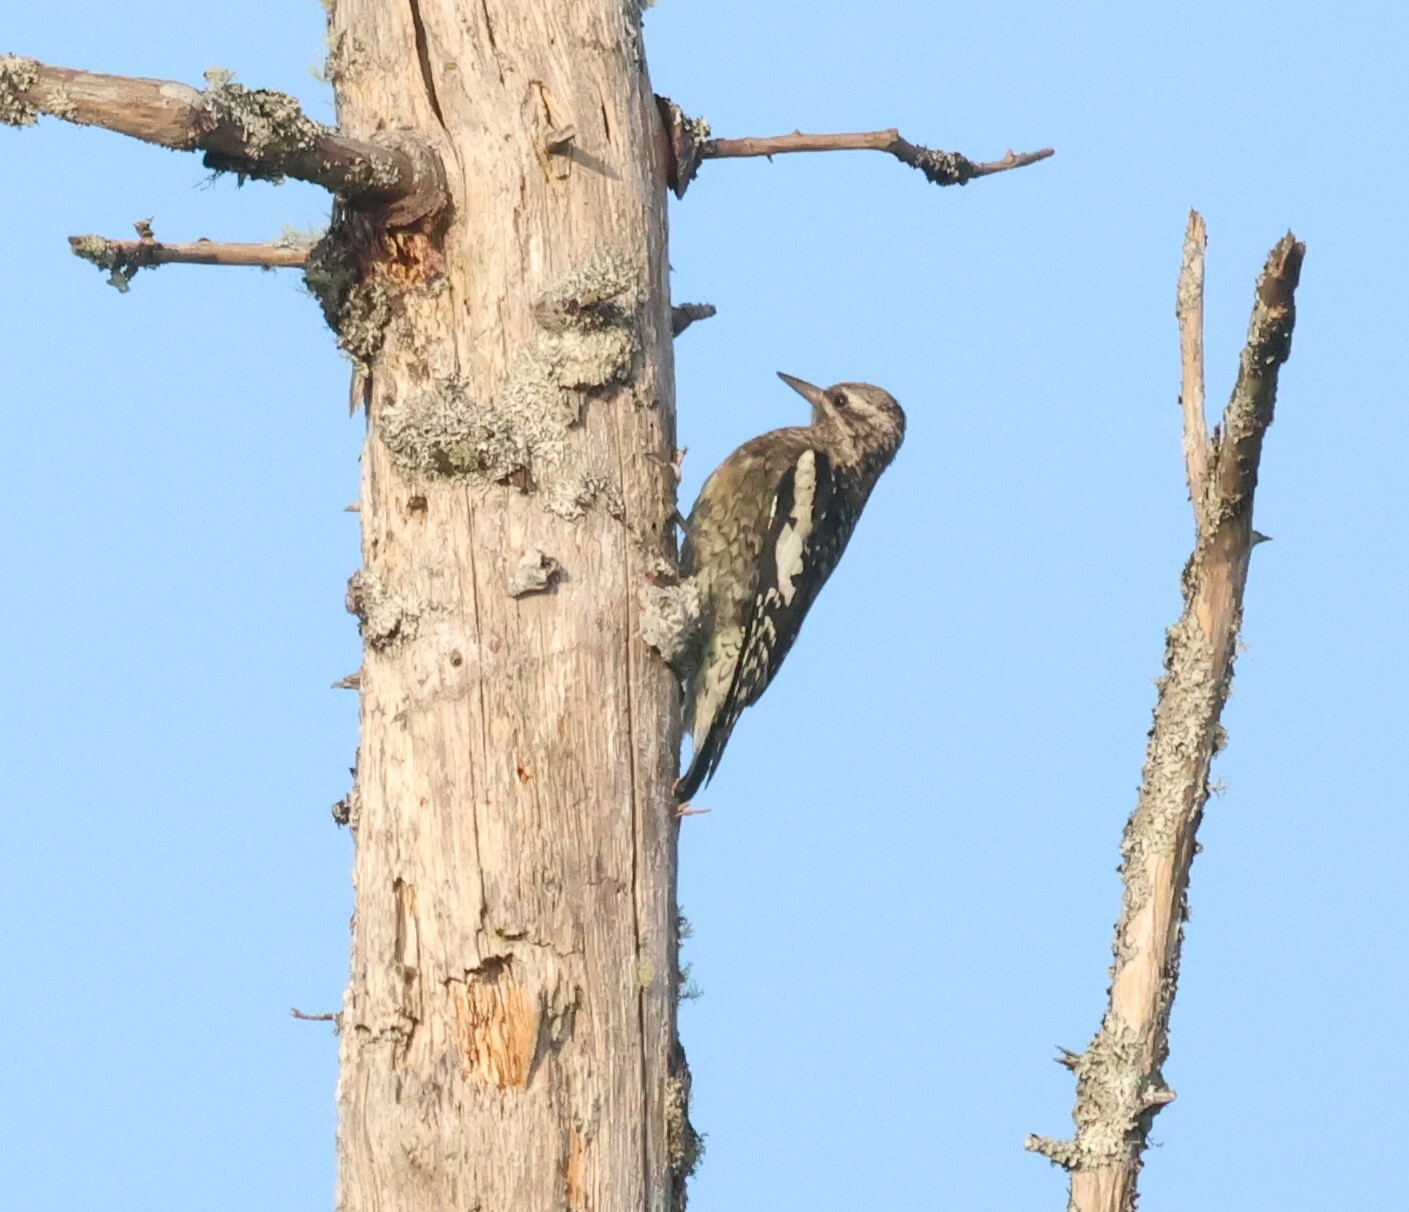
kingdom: Animalia
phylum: Chordata
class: Aves
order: Piciformes
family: Picidae
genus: Sphyrapicus
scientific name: Sphyrapicus varius
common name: Yellow-bellied sapsucker
